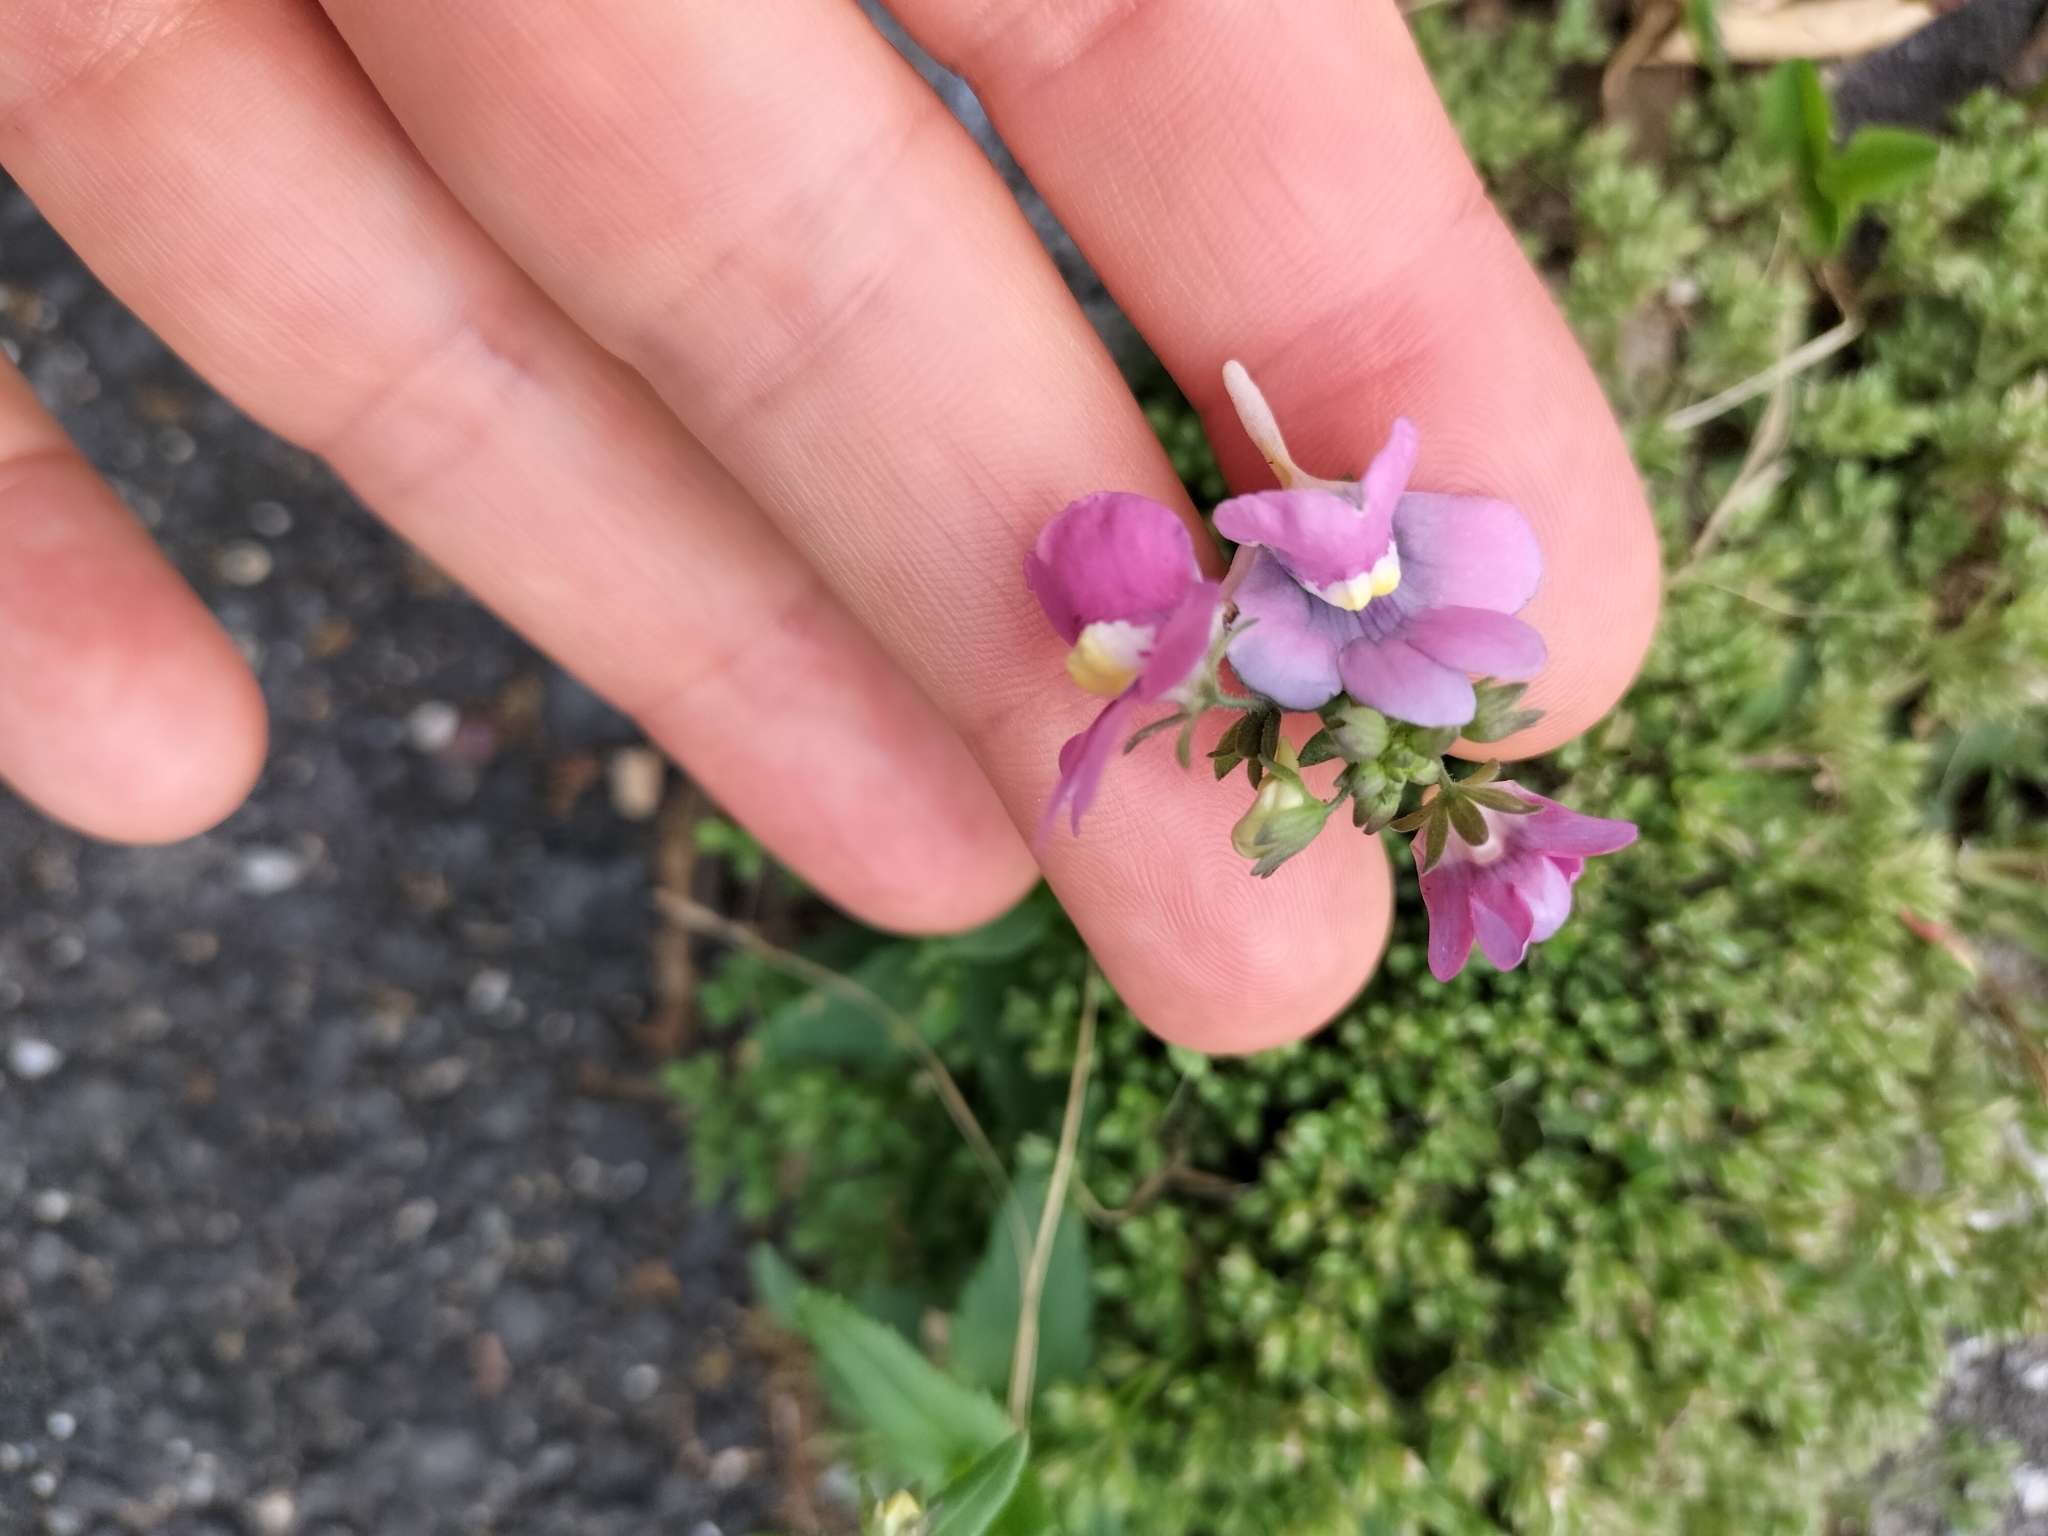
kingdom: Plantae
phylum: Tracheophyta
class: Magnoliopsida
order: Lamiales
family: Scrophulariaceae
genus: Nemesia
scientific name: Nemesia fruticans
